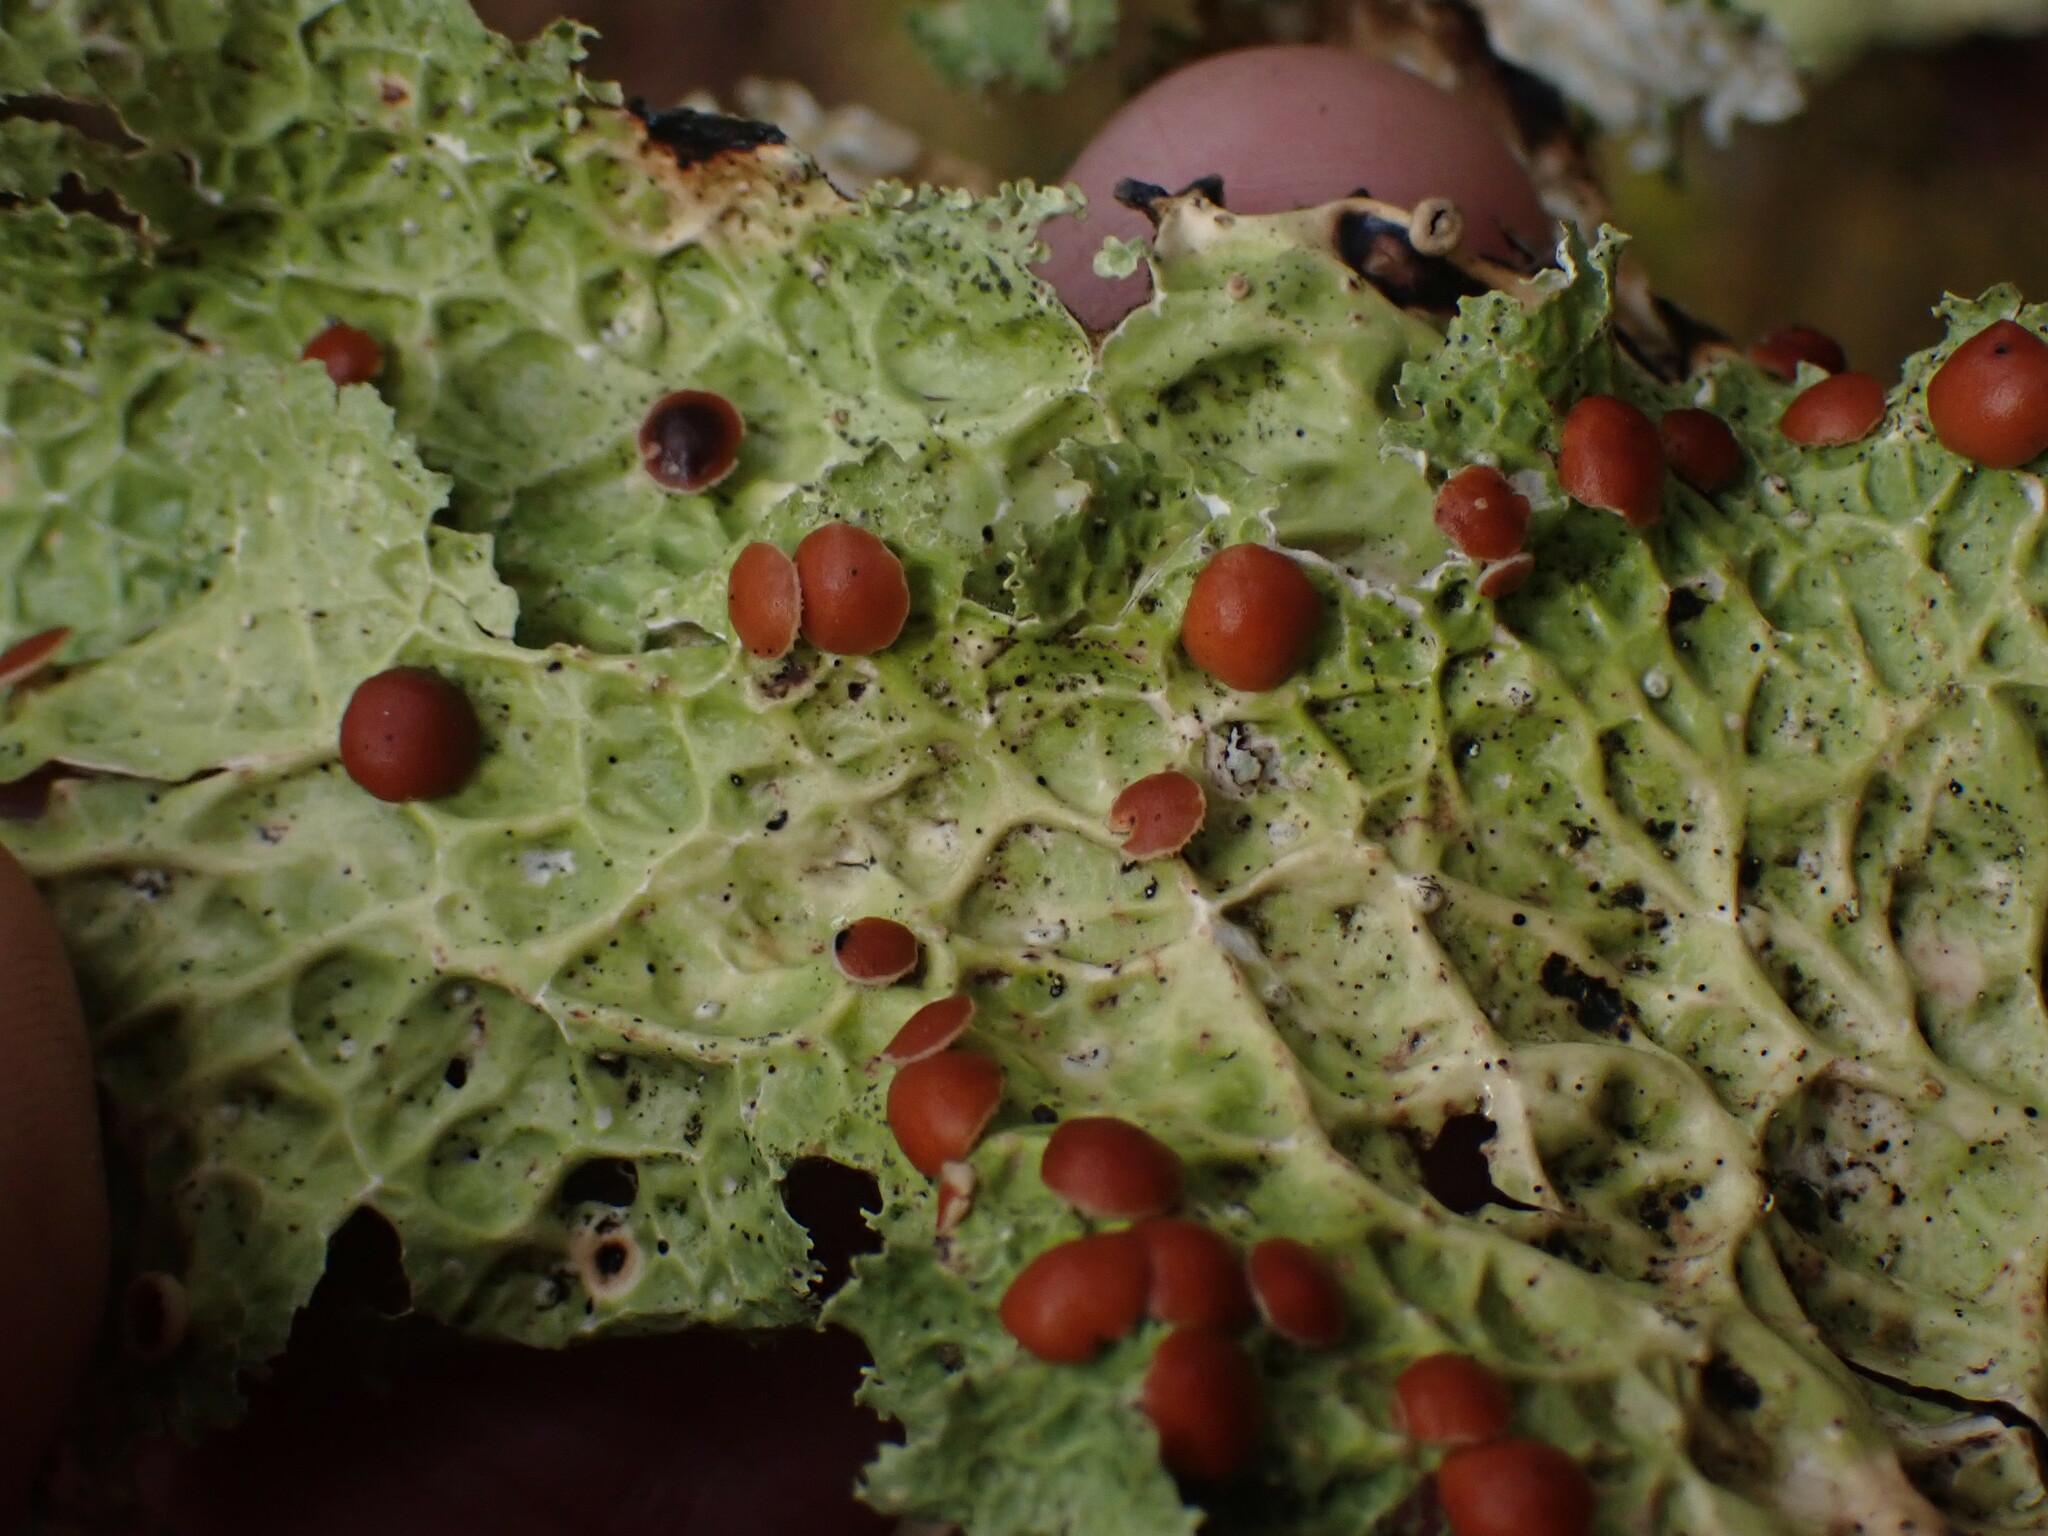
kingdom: Fungi
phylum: Ascomycota
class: Lecanoromycetes
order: Peltigerales
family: Lobariaceae
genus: Lobaria
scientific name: Lobaria oregana
